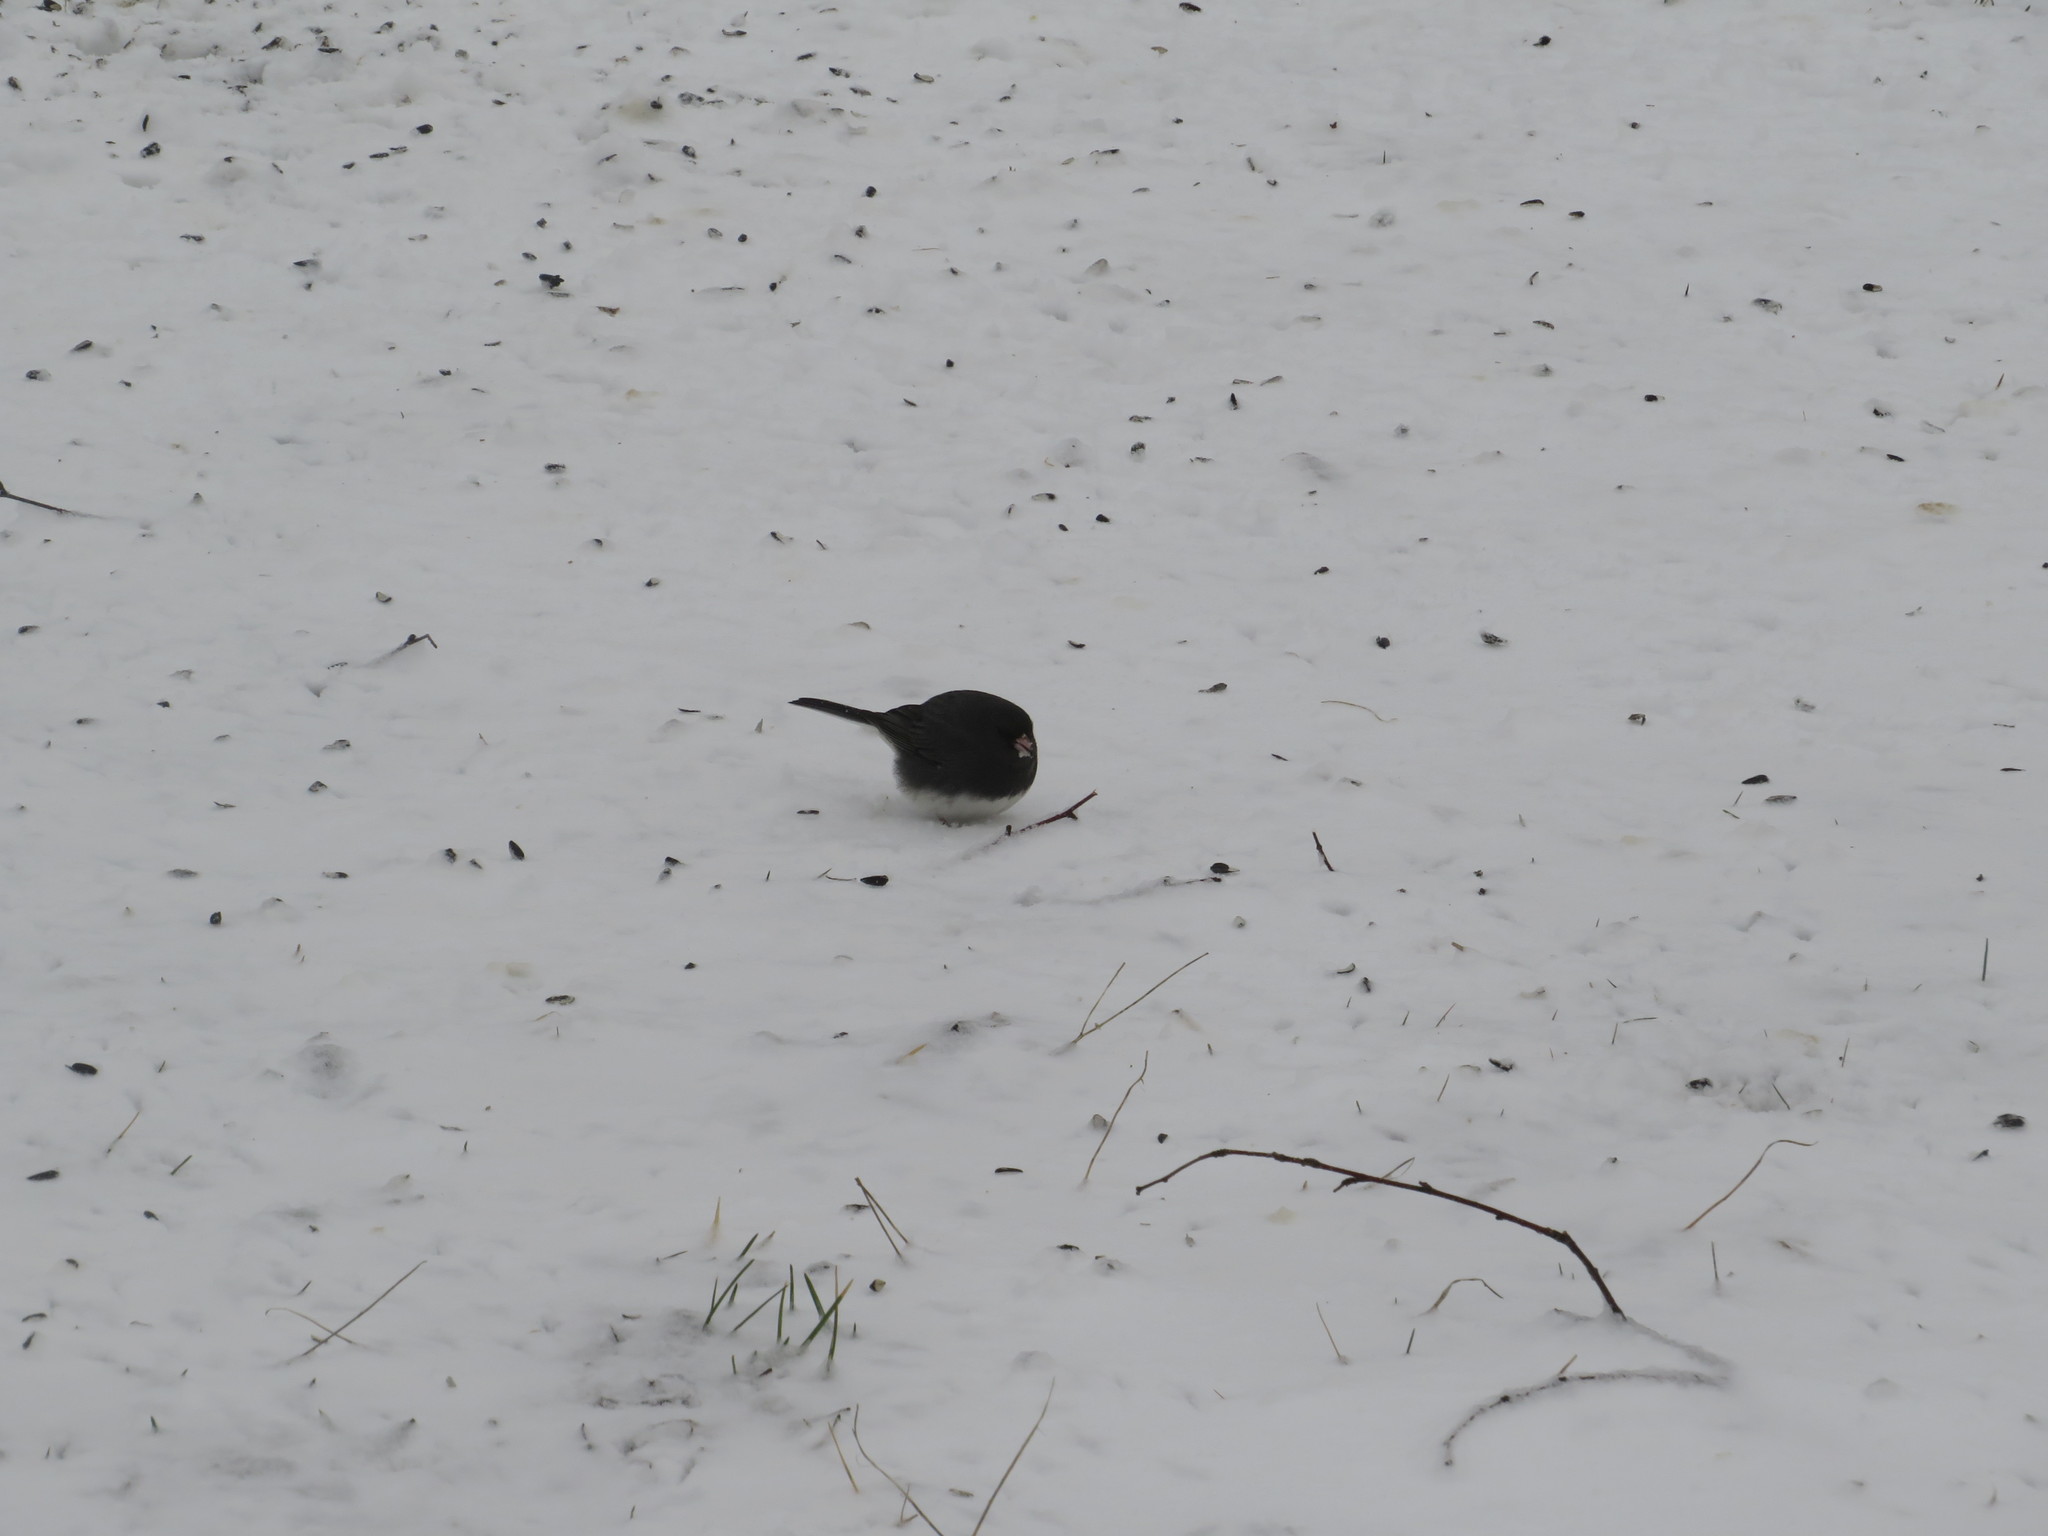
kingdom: Animalia
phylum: Chordata
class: Aves
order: Passeriformes
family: Passerellidae
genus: Junco
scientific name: Junco hyemalis
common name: Dark-eyed junco
